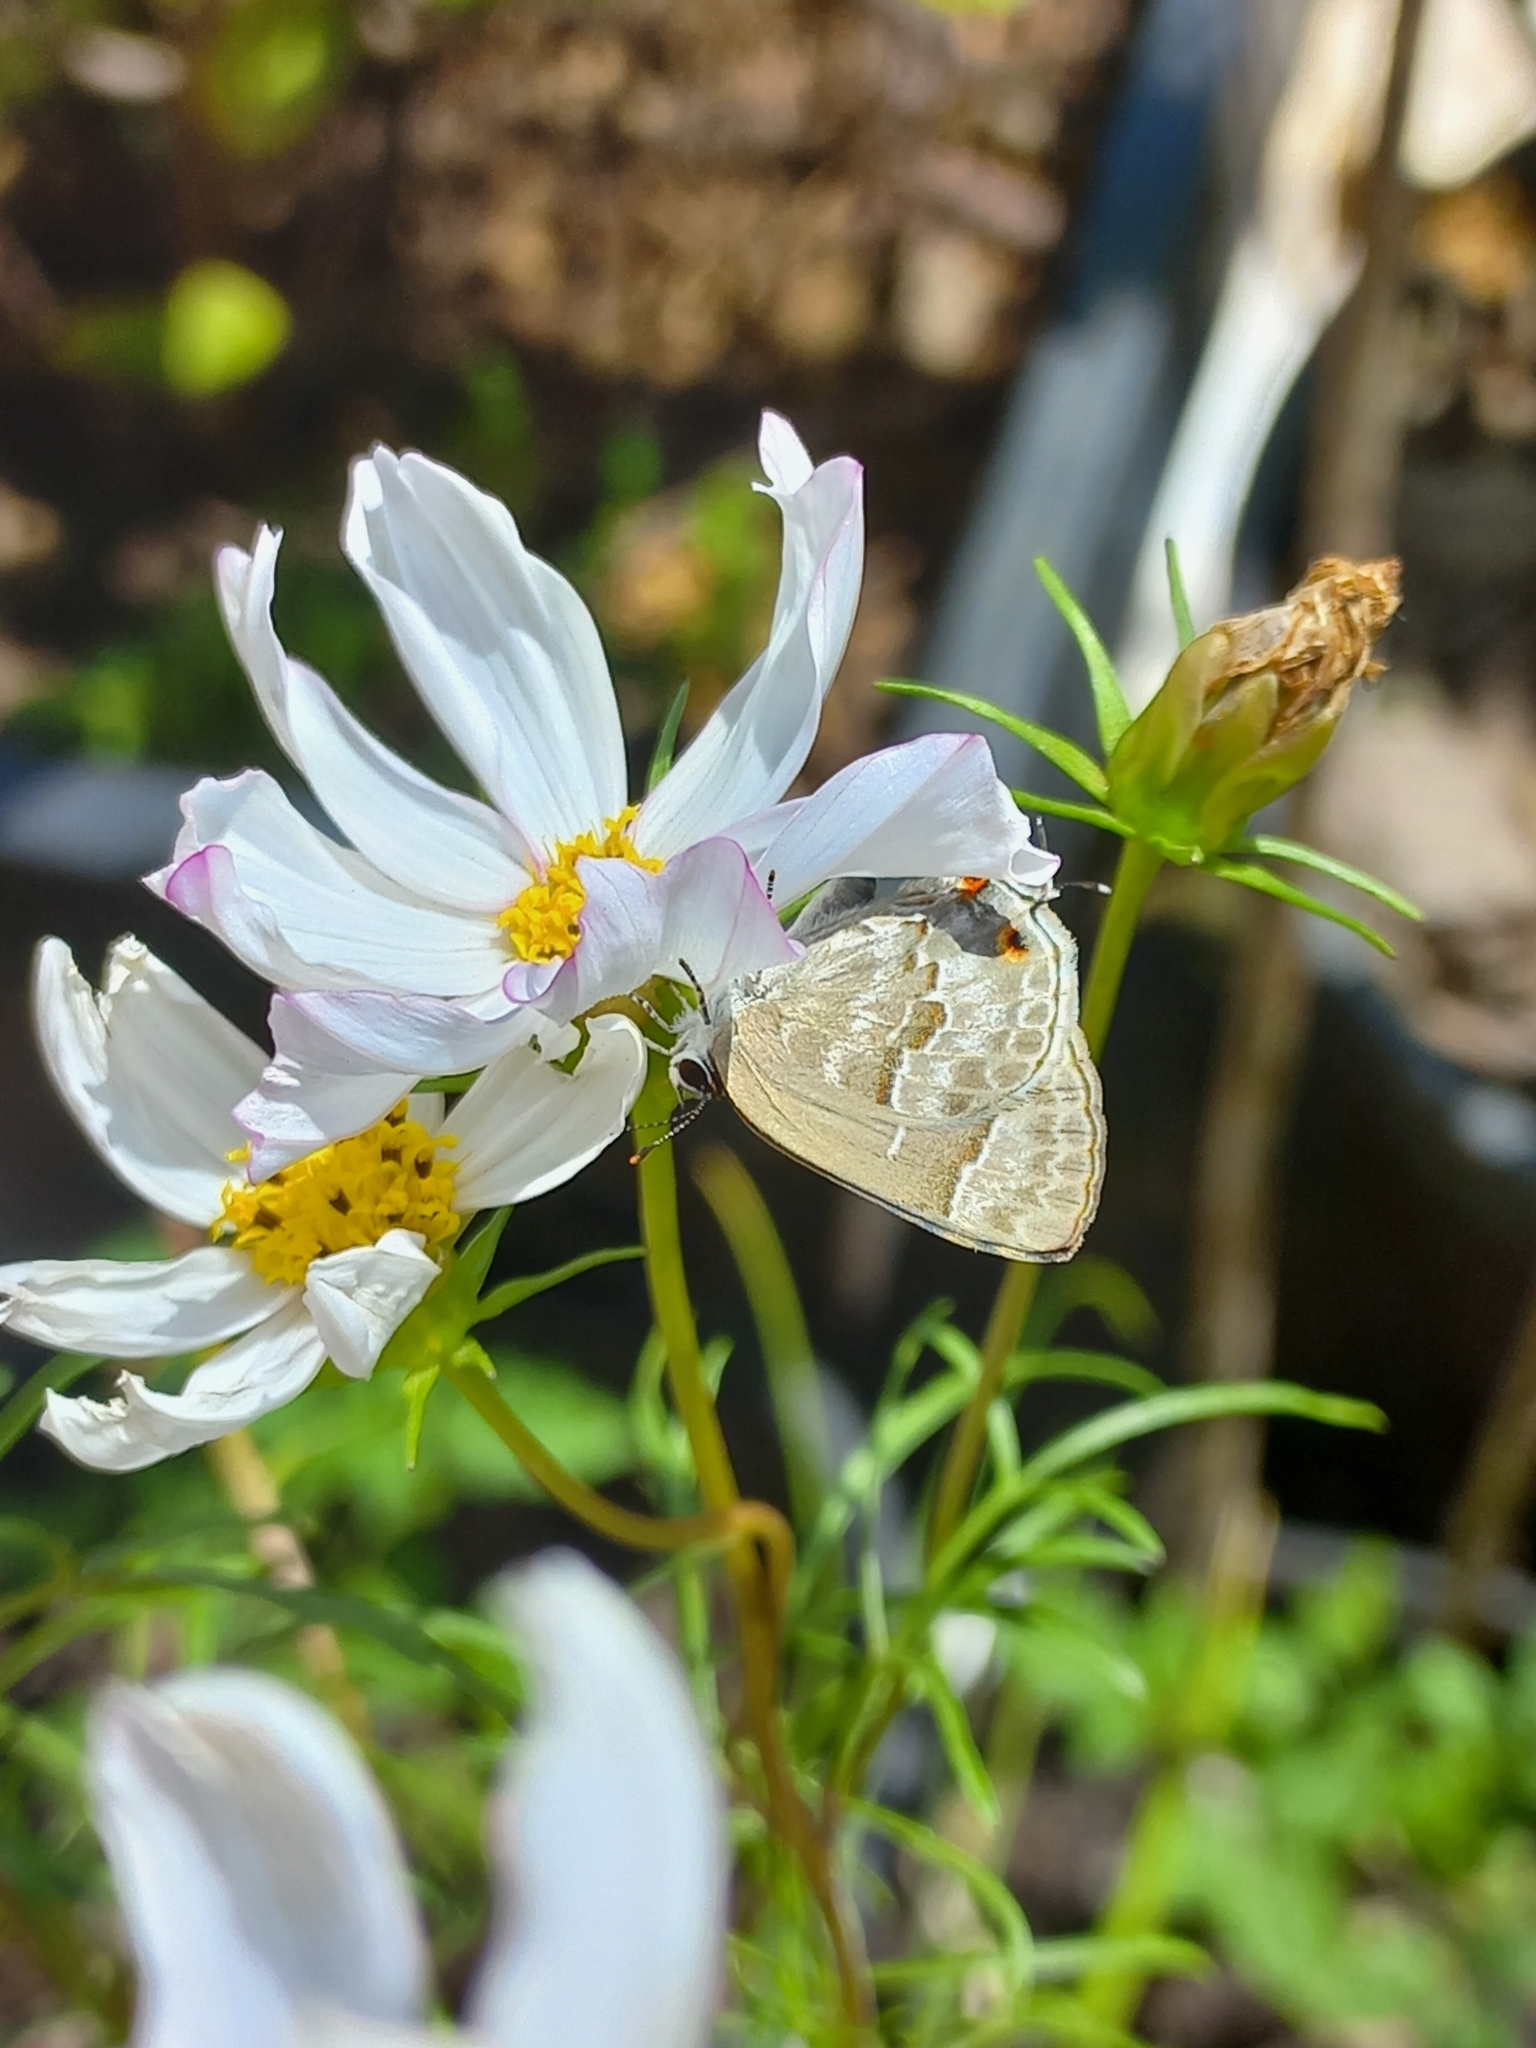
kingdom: Animalia
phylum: Arthropoda
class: Insecta
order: Lepidoptera
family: Lycaenidae
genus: Thecla
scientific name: Thecla yojoa
